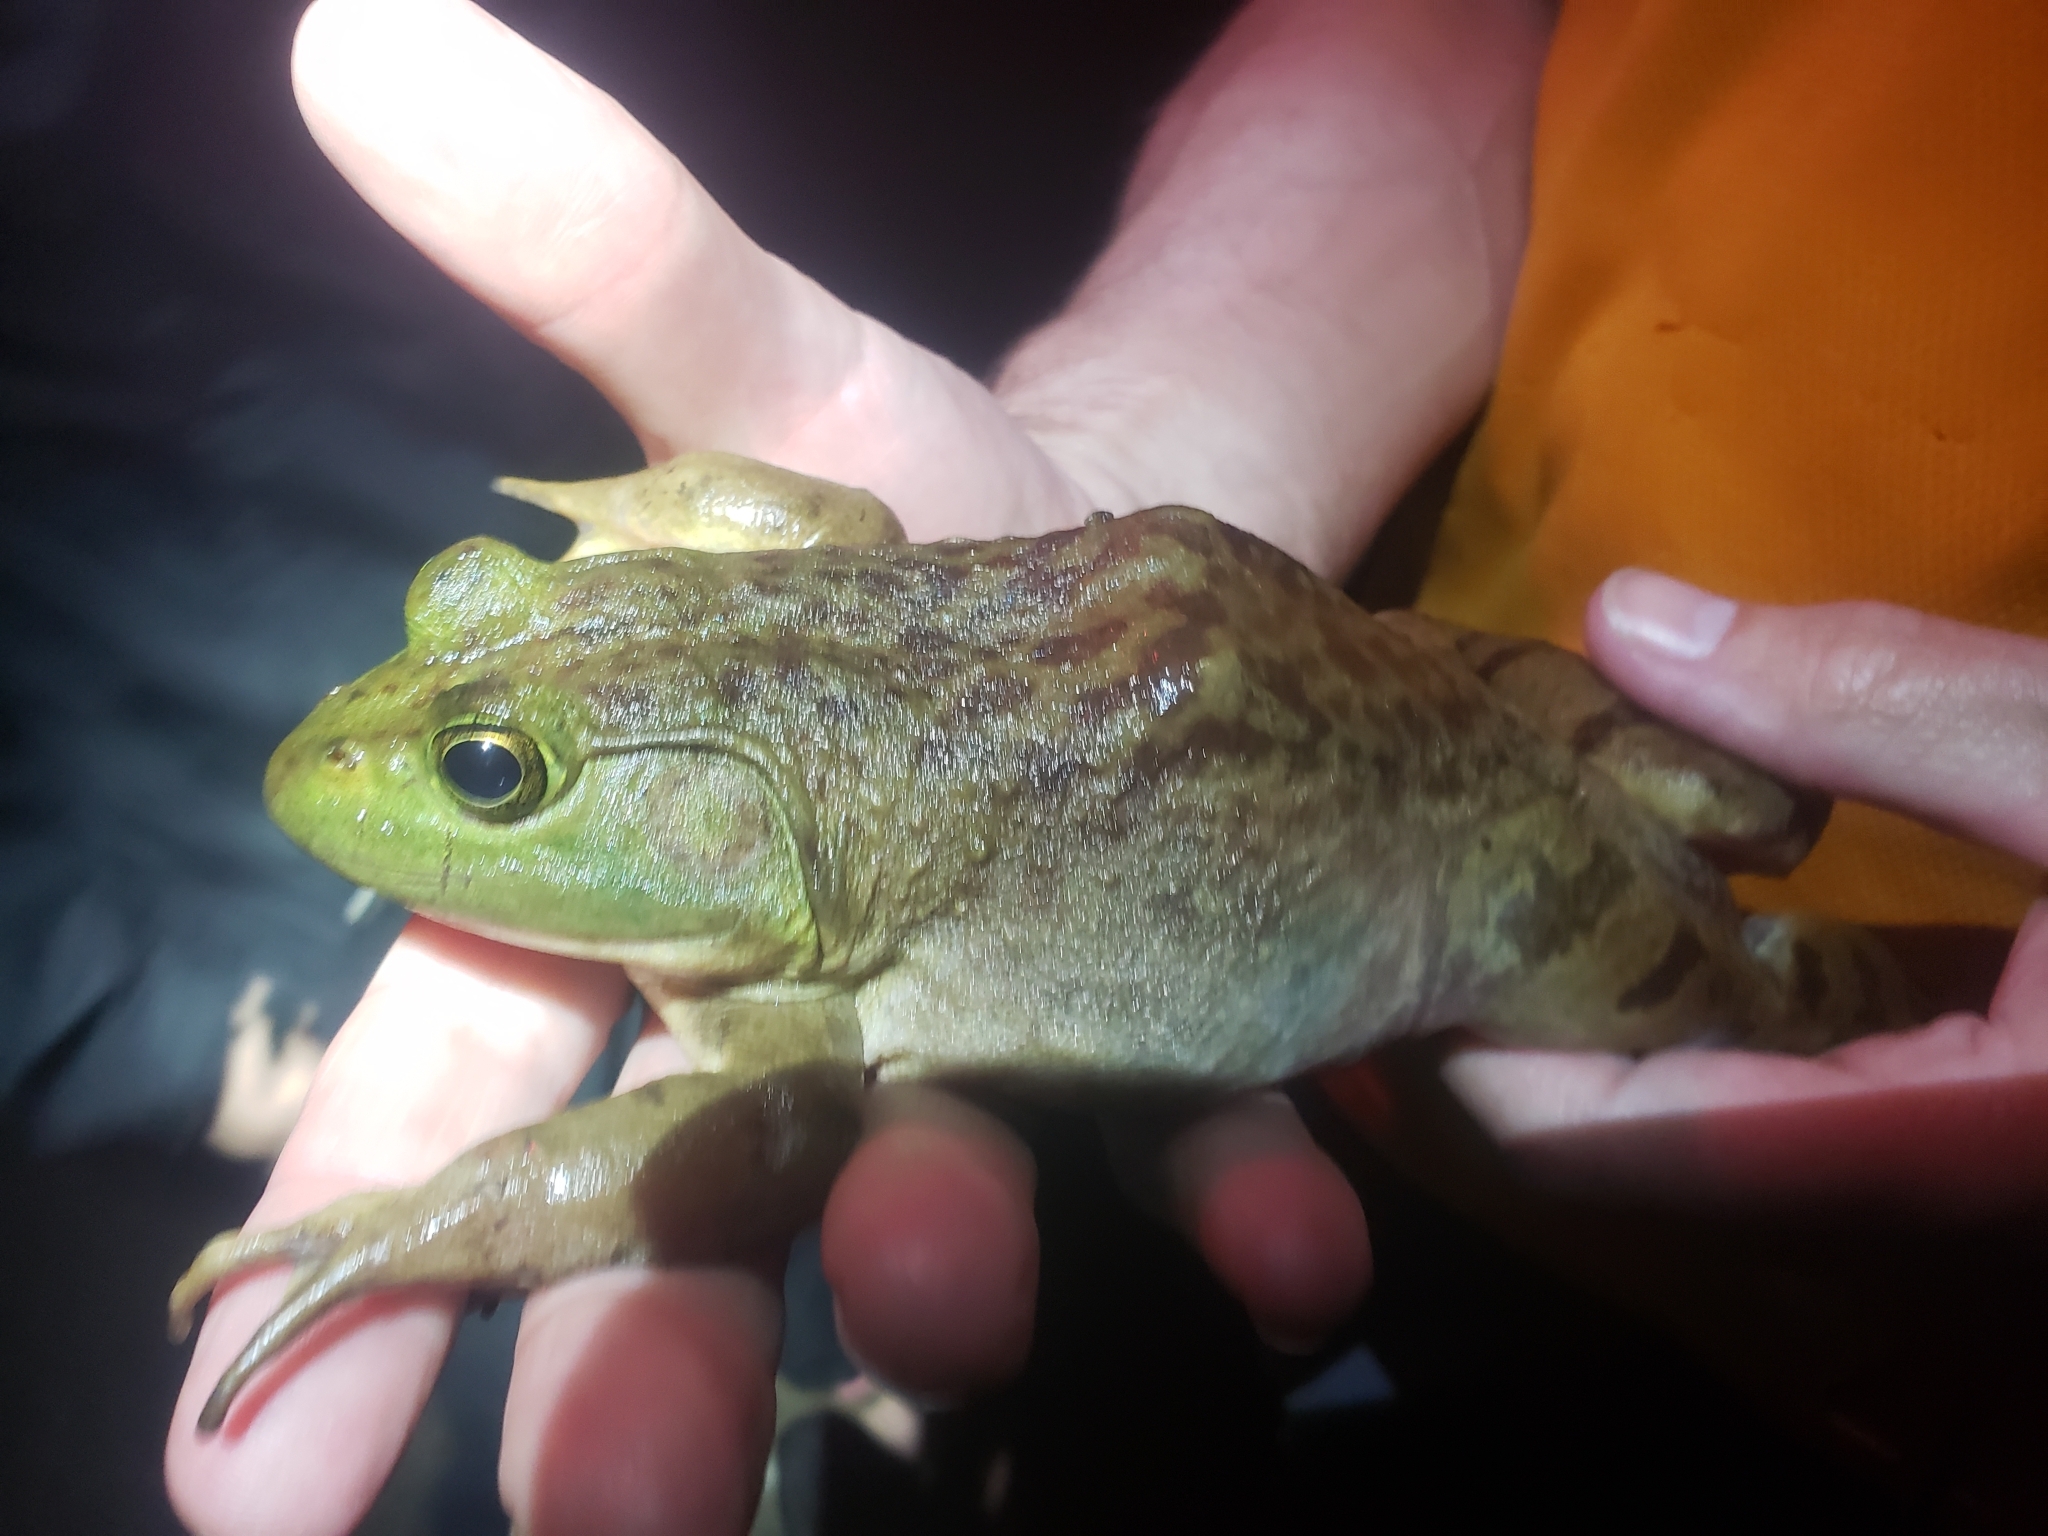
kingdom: Animalia
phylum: Chordata
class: Amphibia
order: Anura
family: Ranidae
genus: Lithobates
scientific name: Lithobates catesbeianus
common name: American bullfrog
